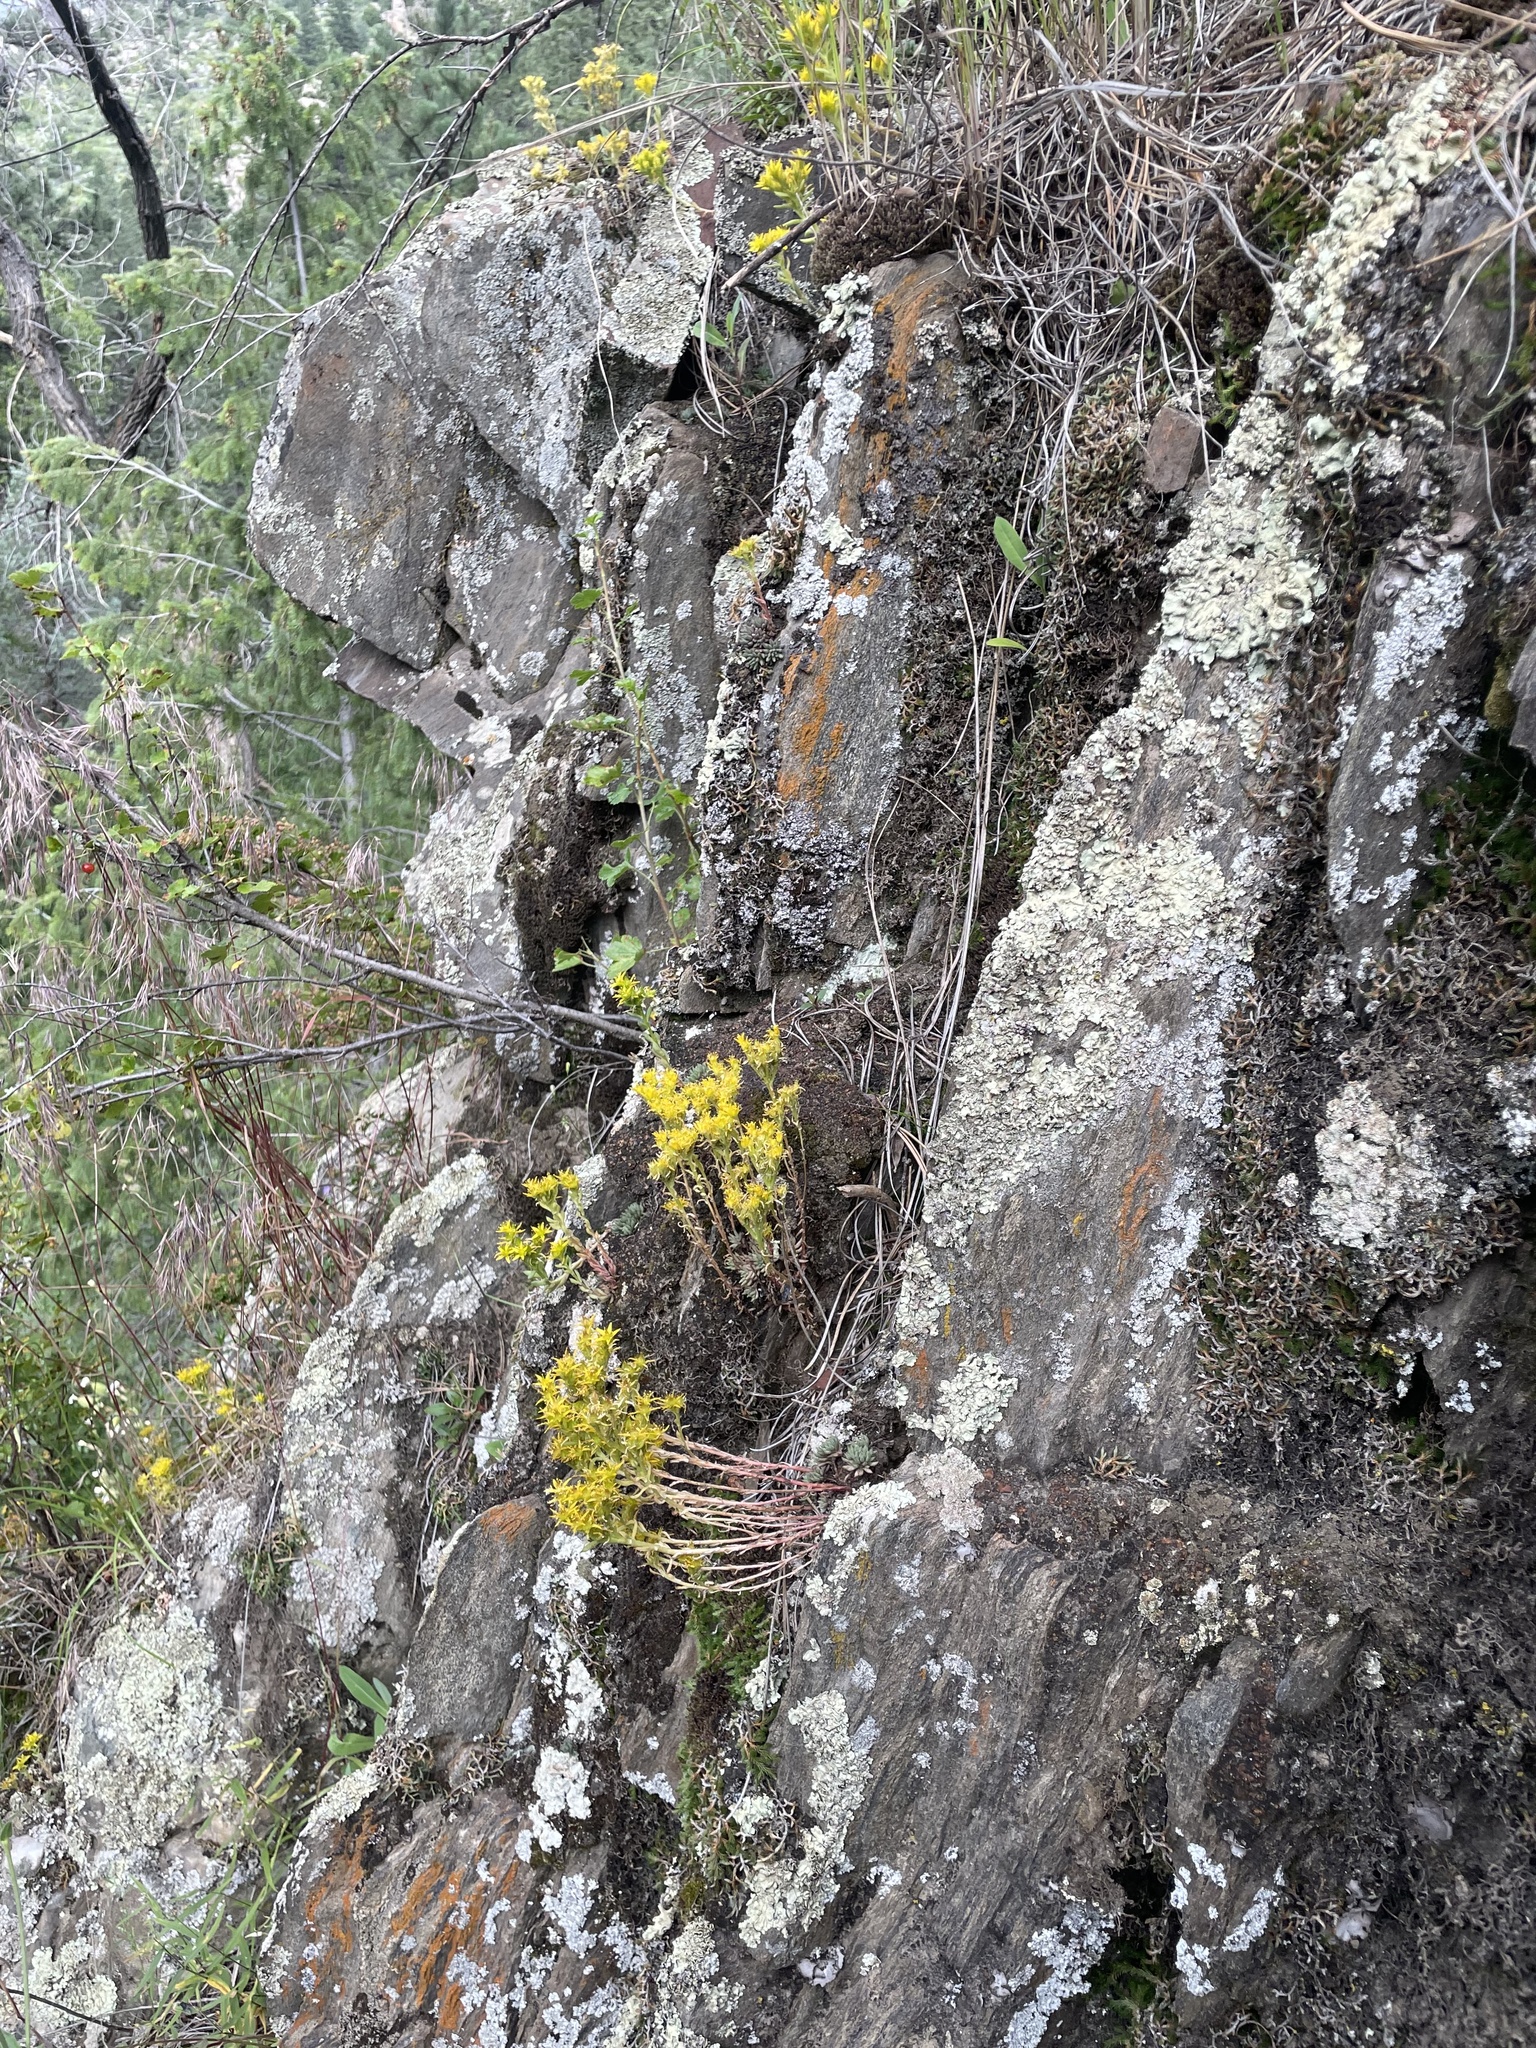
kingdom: Plantae
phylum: Tracheophyta
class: Magnoliopsida
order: Saxifragales
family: Crassulaceae
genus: Sedum
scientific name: Sedum lanceolatum
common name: Common stonecrop
